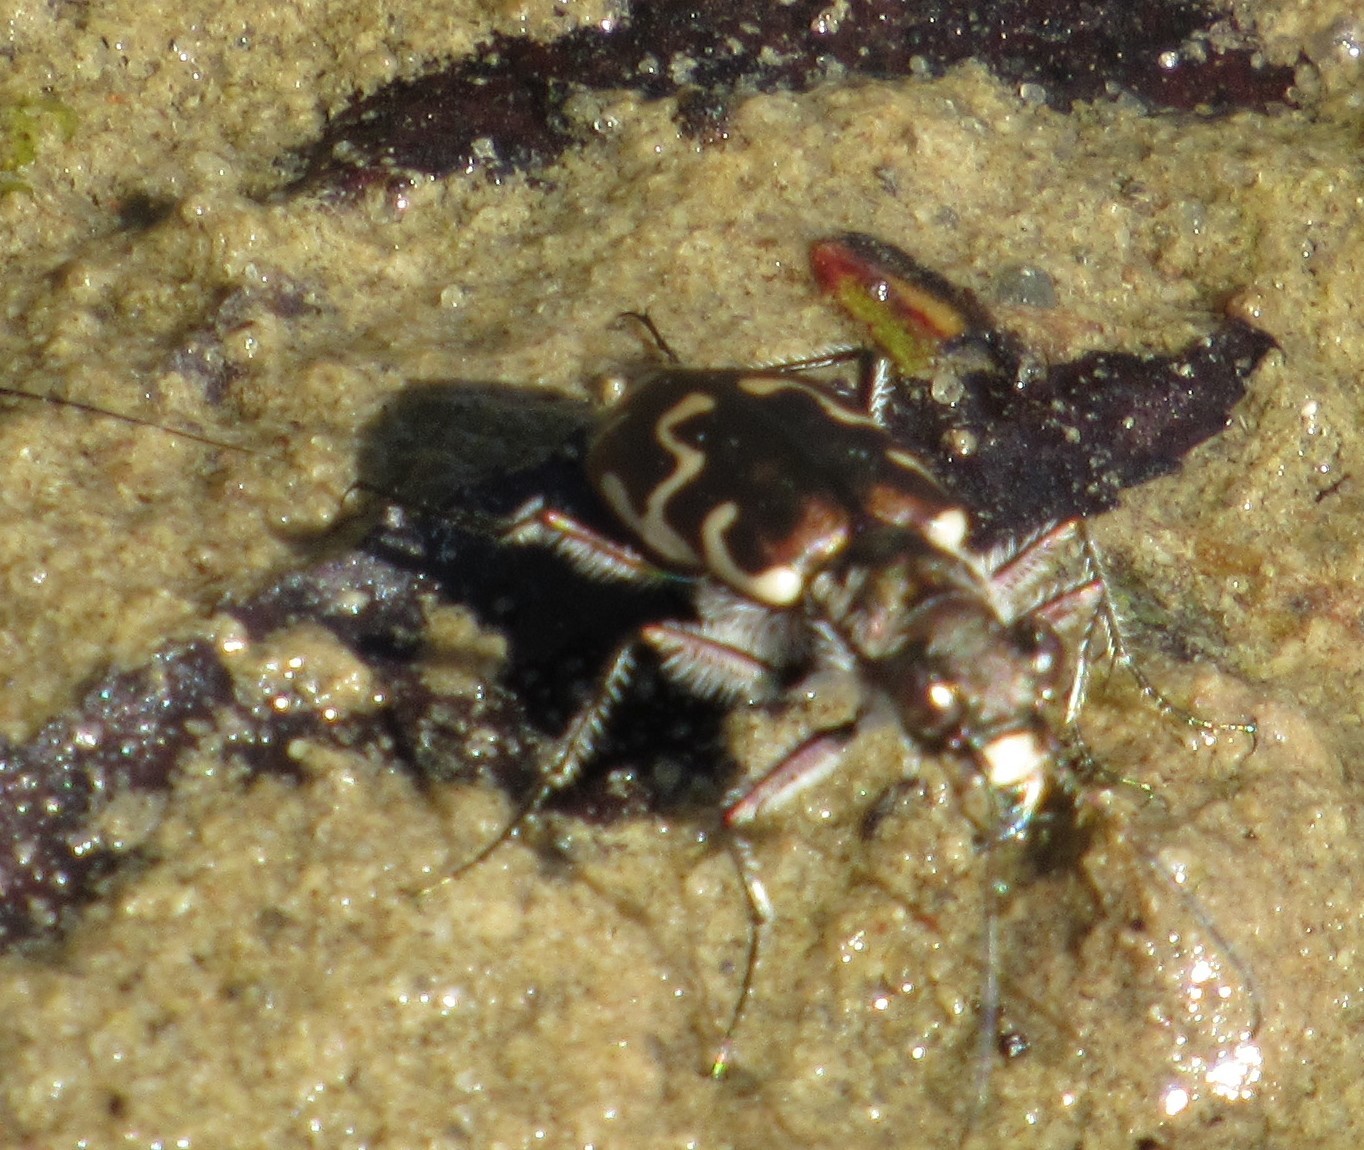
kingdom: Animalia
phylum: Arthropoda
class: Insecta
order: Coleoptera
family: Carabidae
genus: Cicindela
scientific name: Cicindela repanda
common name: Bronzed tiger beetle
